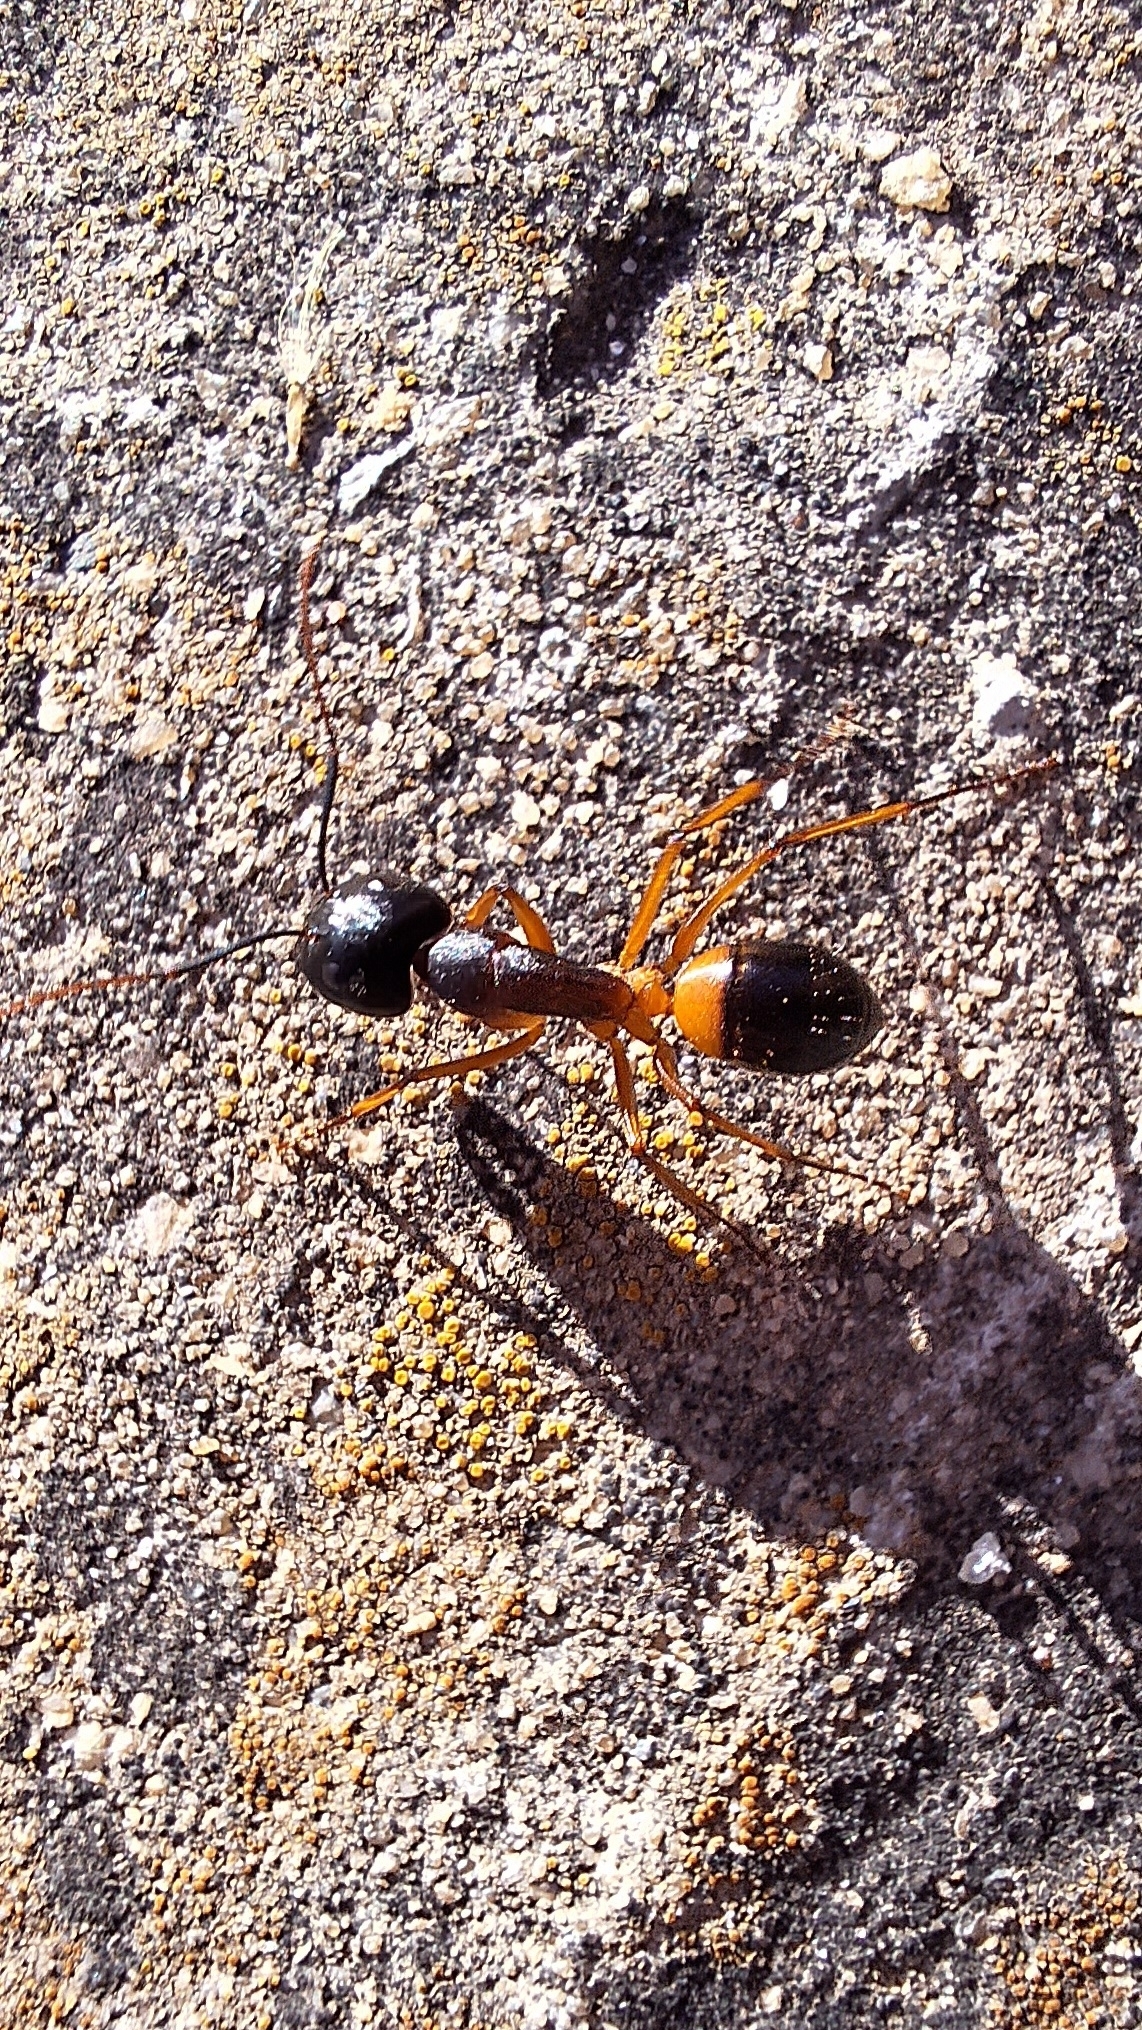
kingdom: Animalia
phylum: Arthropoda
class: Insecta
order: Hymenoptera
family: Formicidae
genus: Camponotus
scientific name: Camponotus consobrinus
